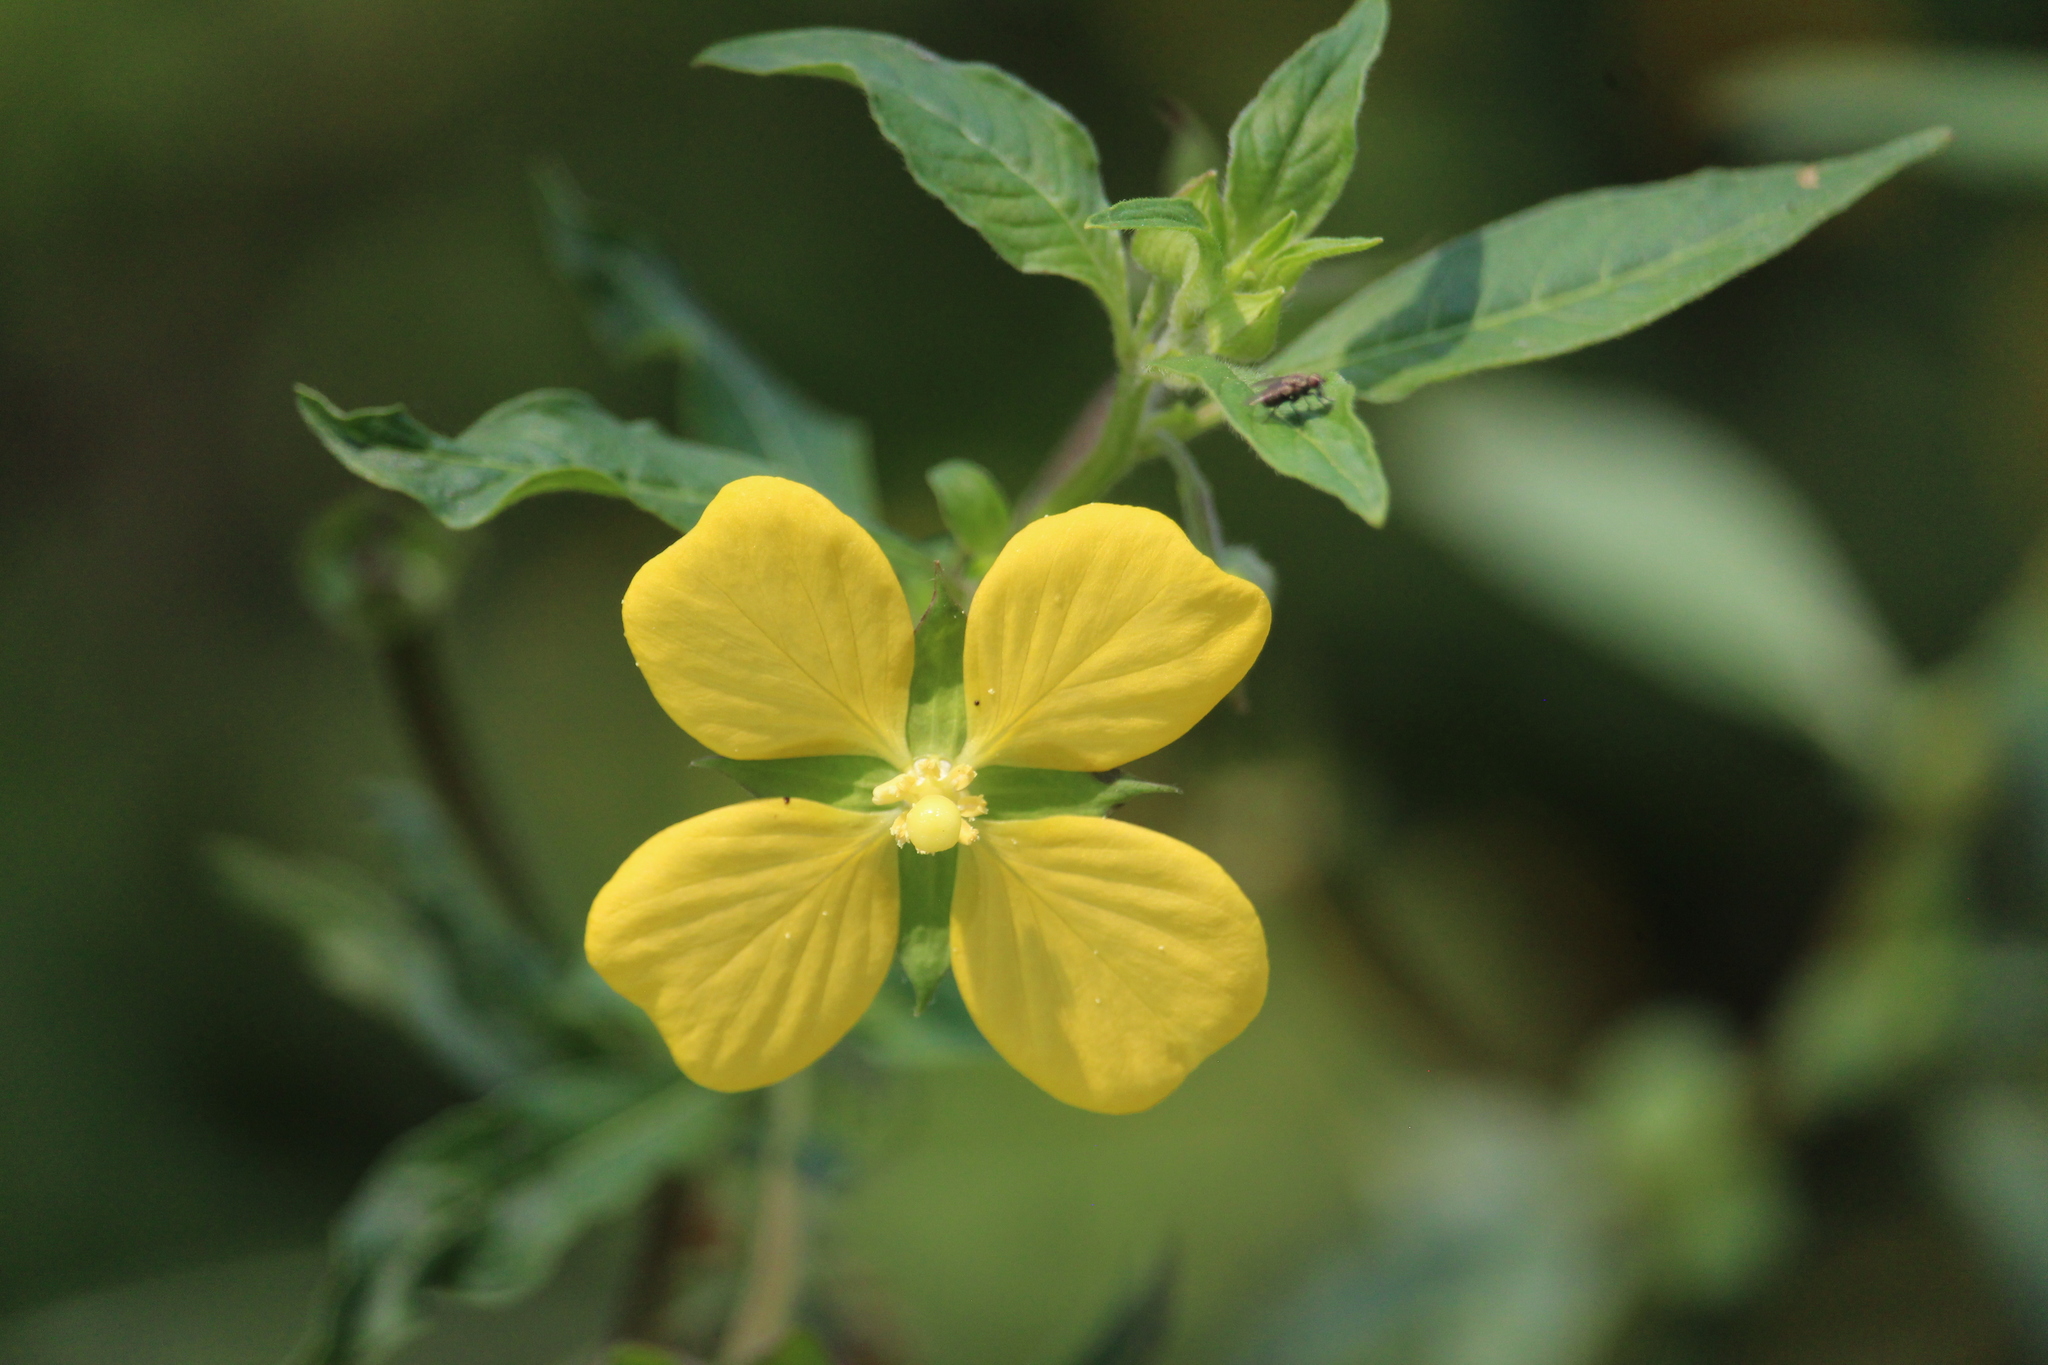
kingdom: Plantae
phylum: Tracheophyta
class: Magnoliopsida
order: Myrtales
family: Onagraceae
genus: Ludwigia
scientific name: Ludwigia octovalvis
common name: Water-primrose
